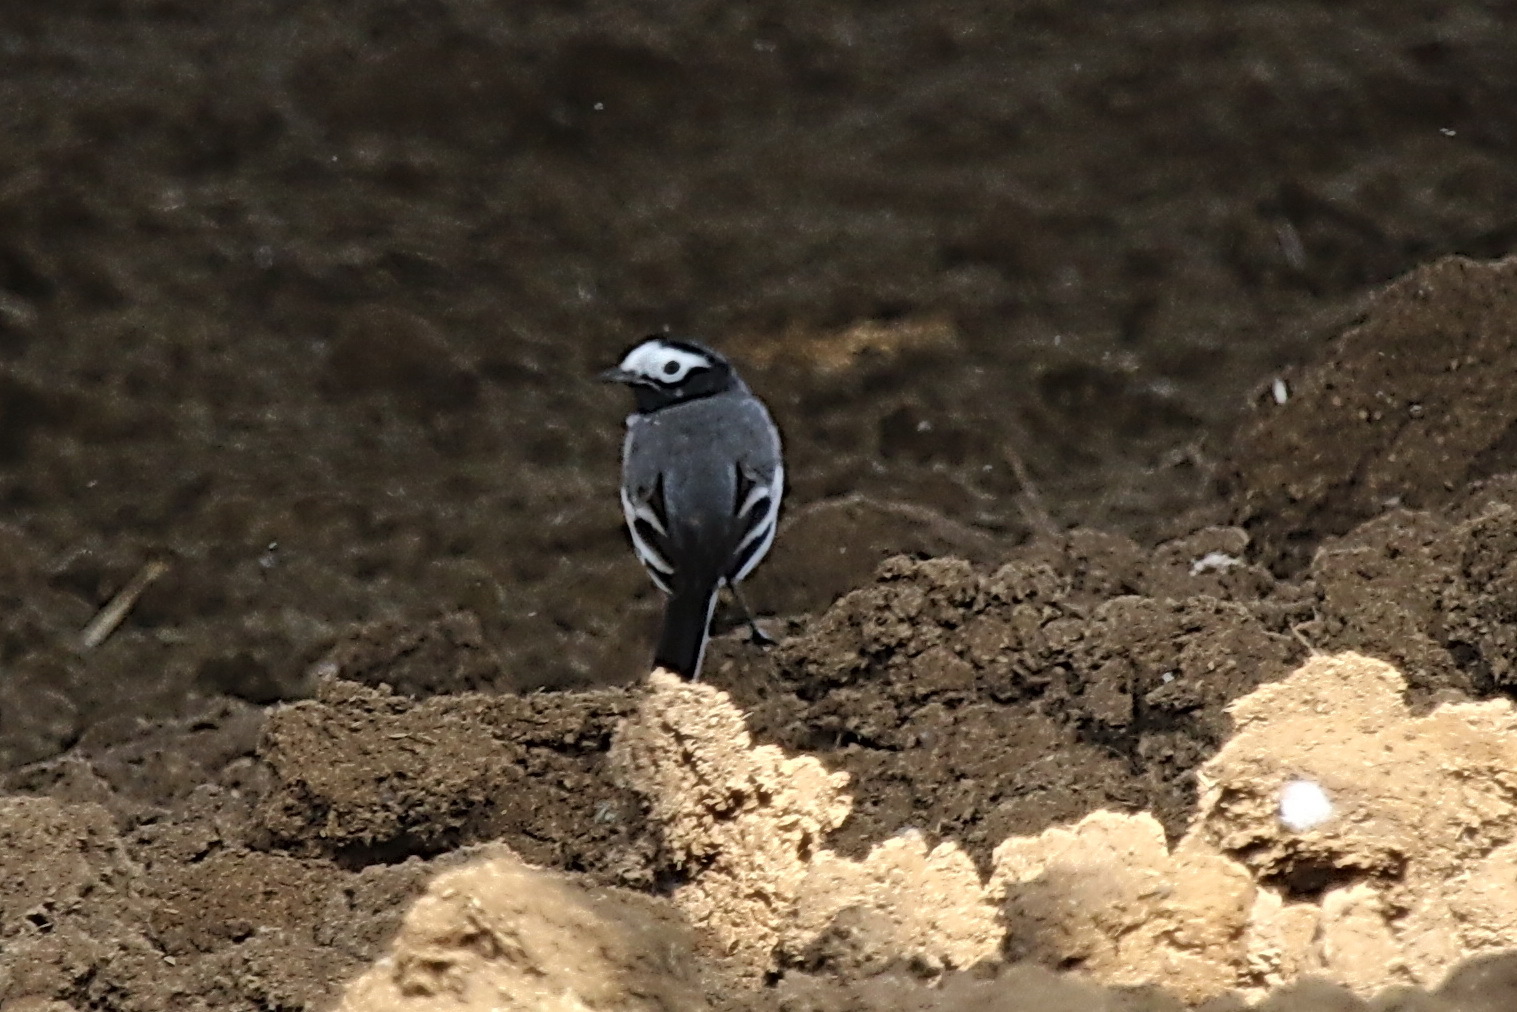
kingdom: Animalia
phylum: Chordata
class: Aves
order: Passeriformes
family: Motacillidae
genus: Motacilla
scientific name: Motacilla alba
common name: White wagtail
